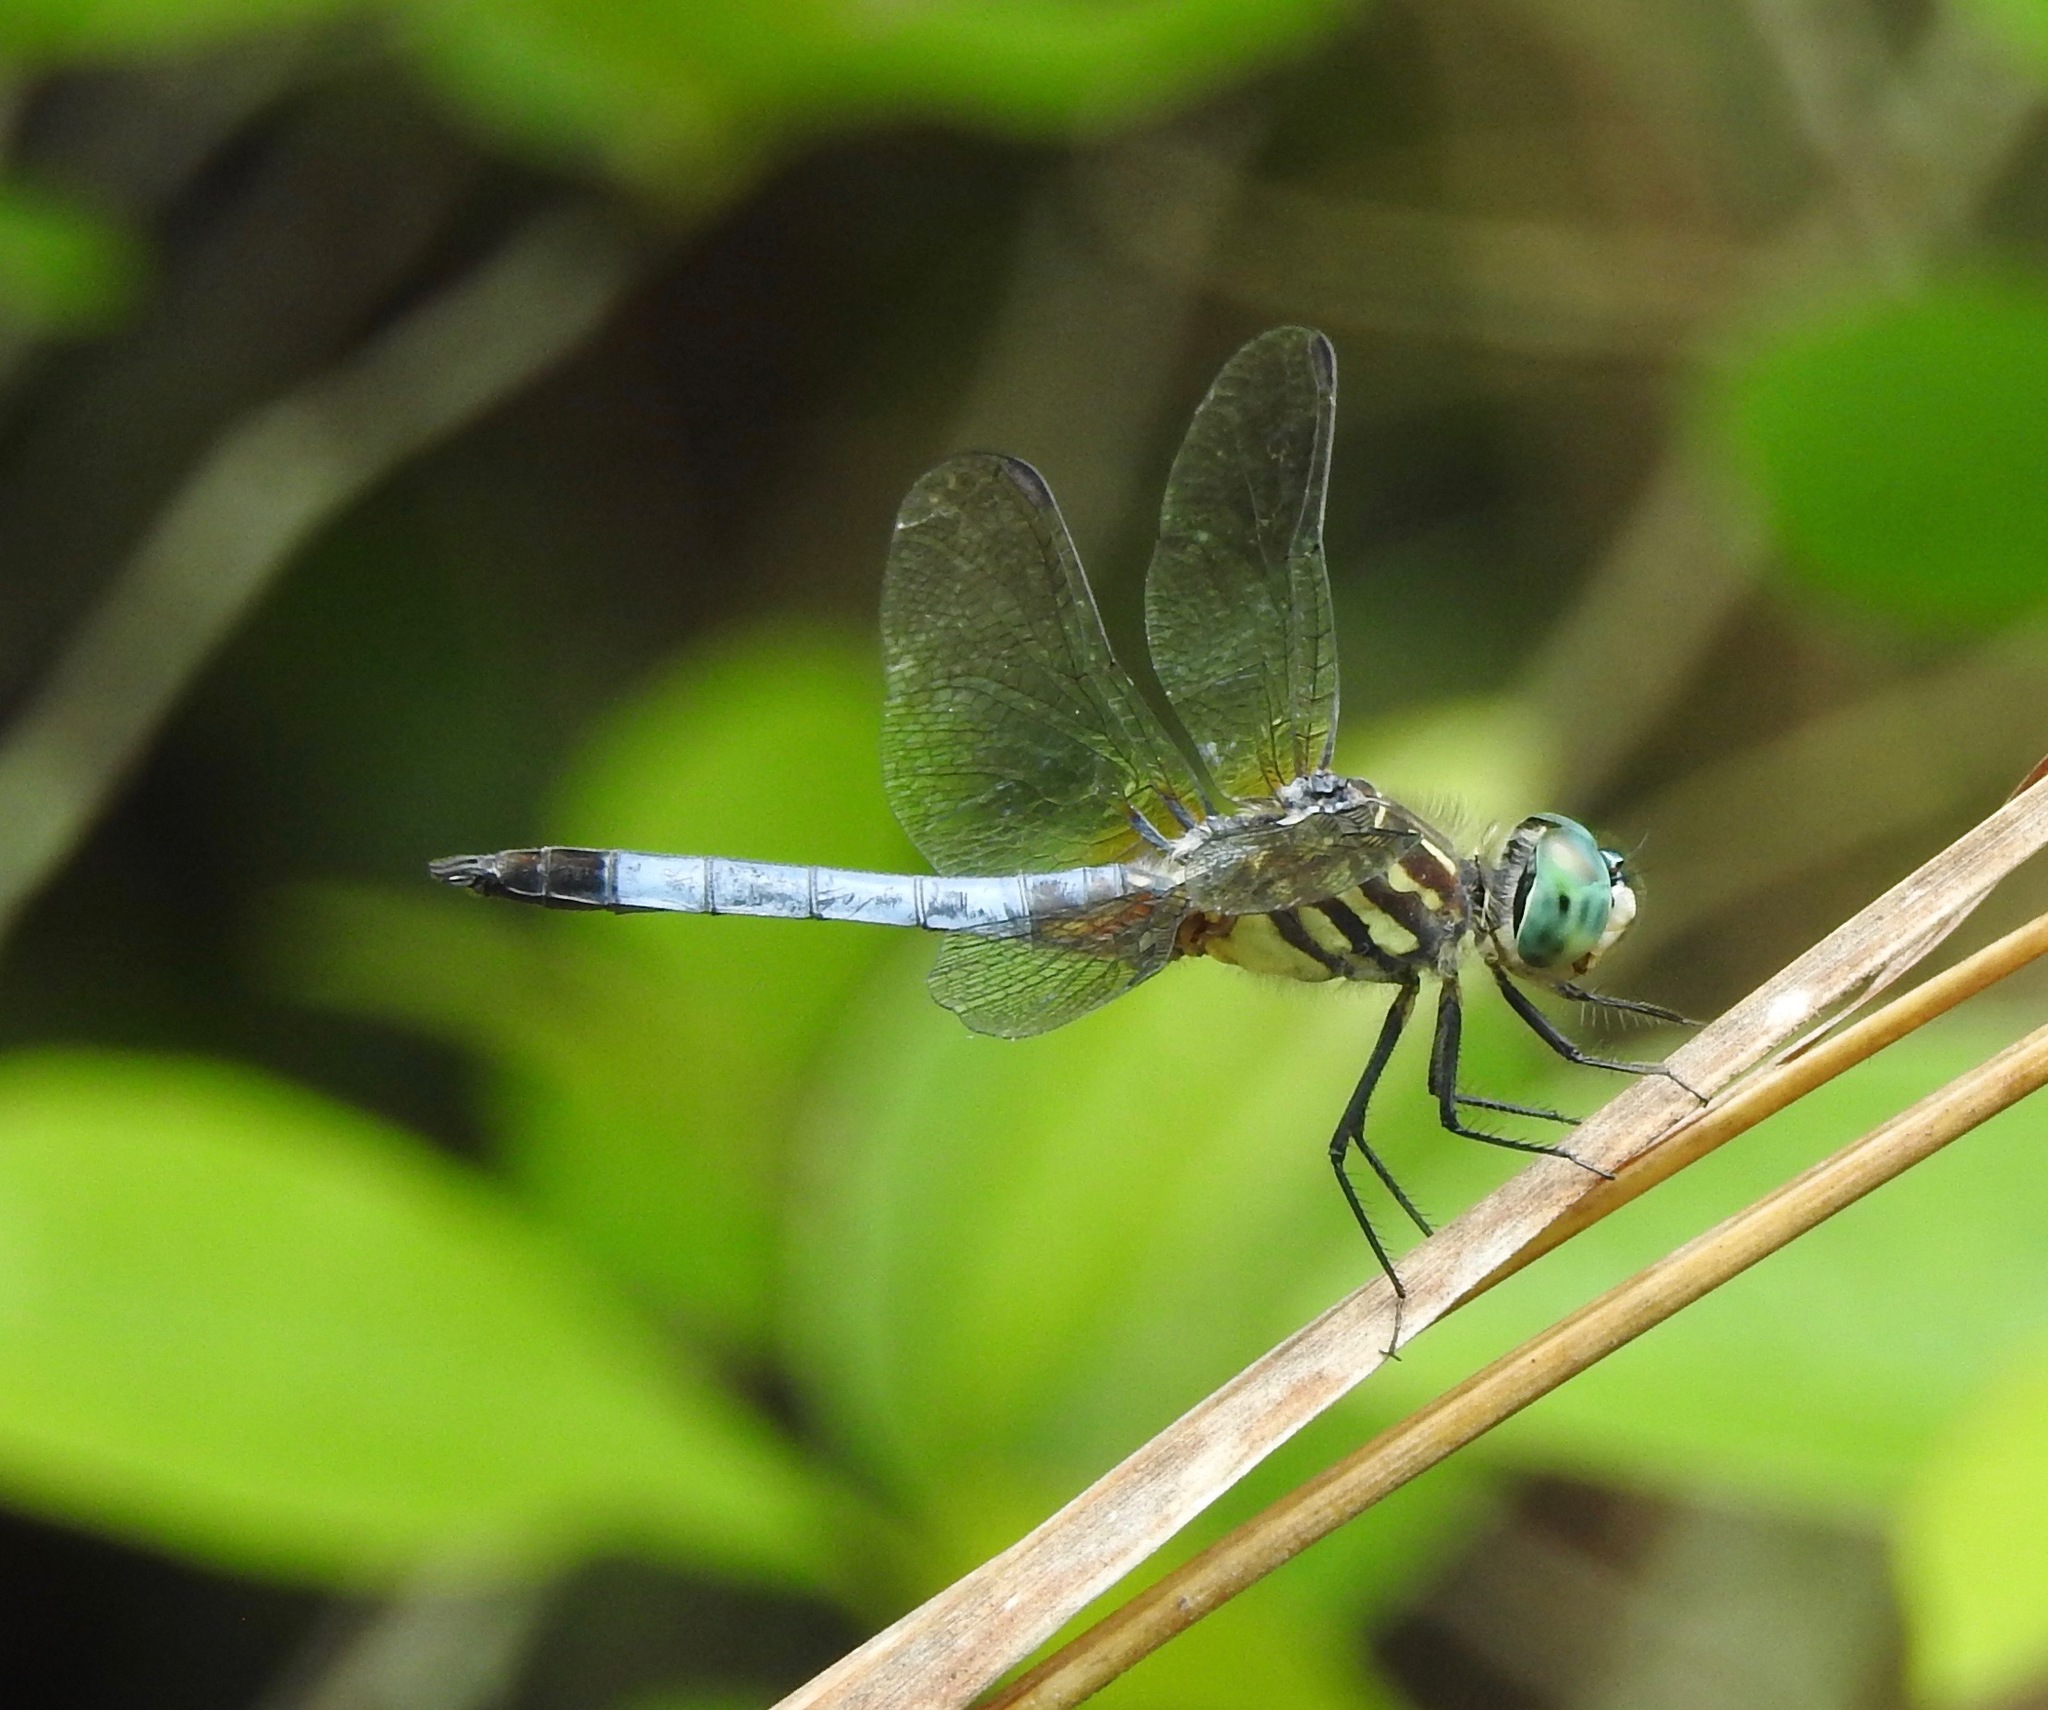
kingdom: Animalia
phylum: Arthropoda
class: Insecta
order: Odonata
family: Libellulidae
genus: Pachydiplax
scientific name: Pachydiplax longipennis
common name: Blue dasher
